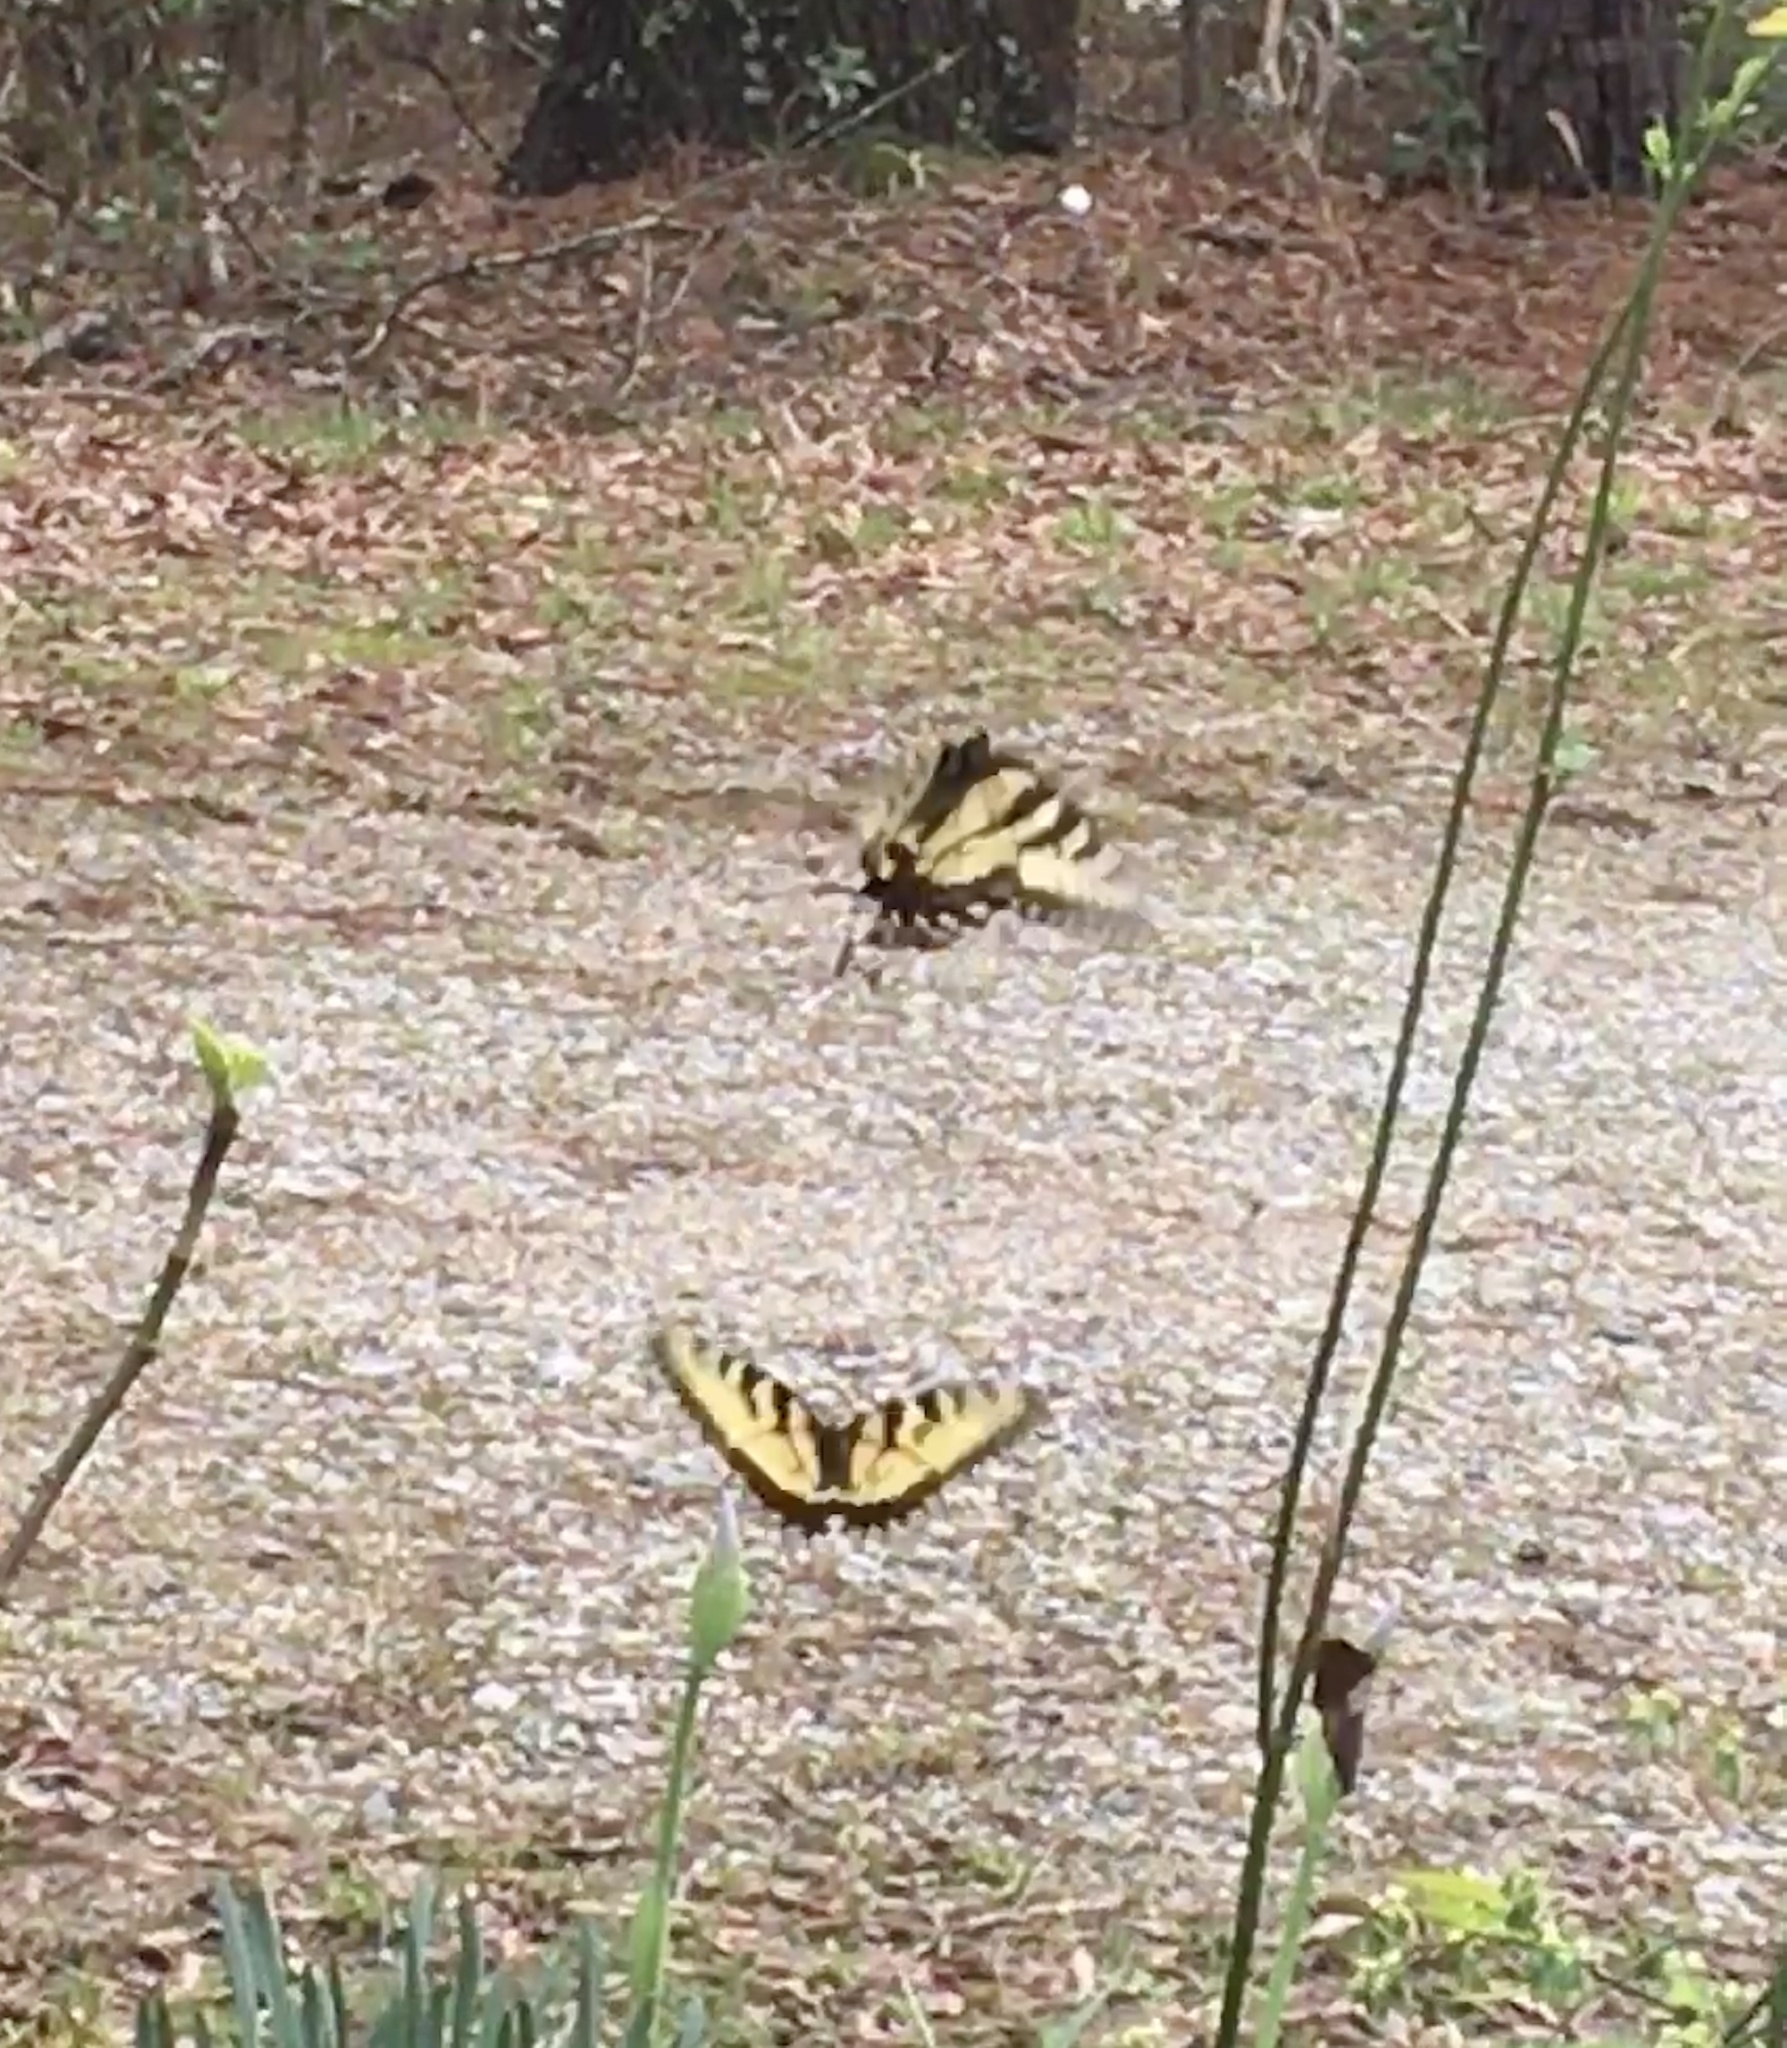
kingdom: Animalia
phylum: Arthropoda
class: Insecta
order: Lepidoptera
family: Papilionidae
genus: Papilio
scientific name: Papilio glaucus
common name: Tiger swallowtail
